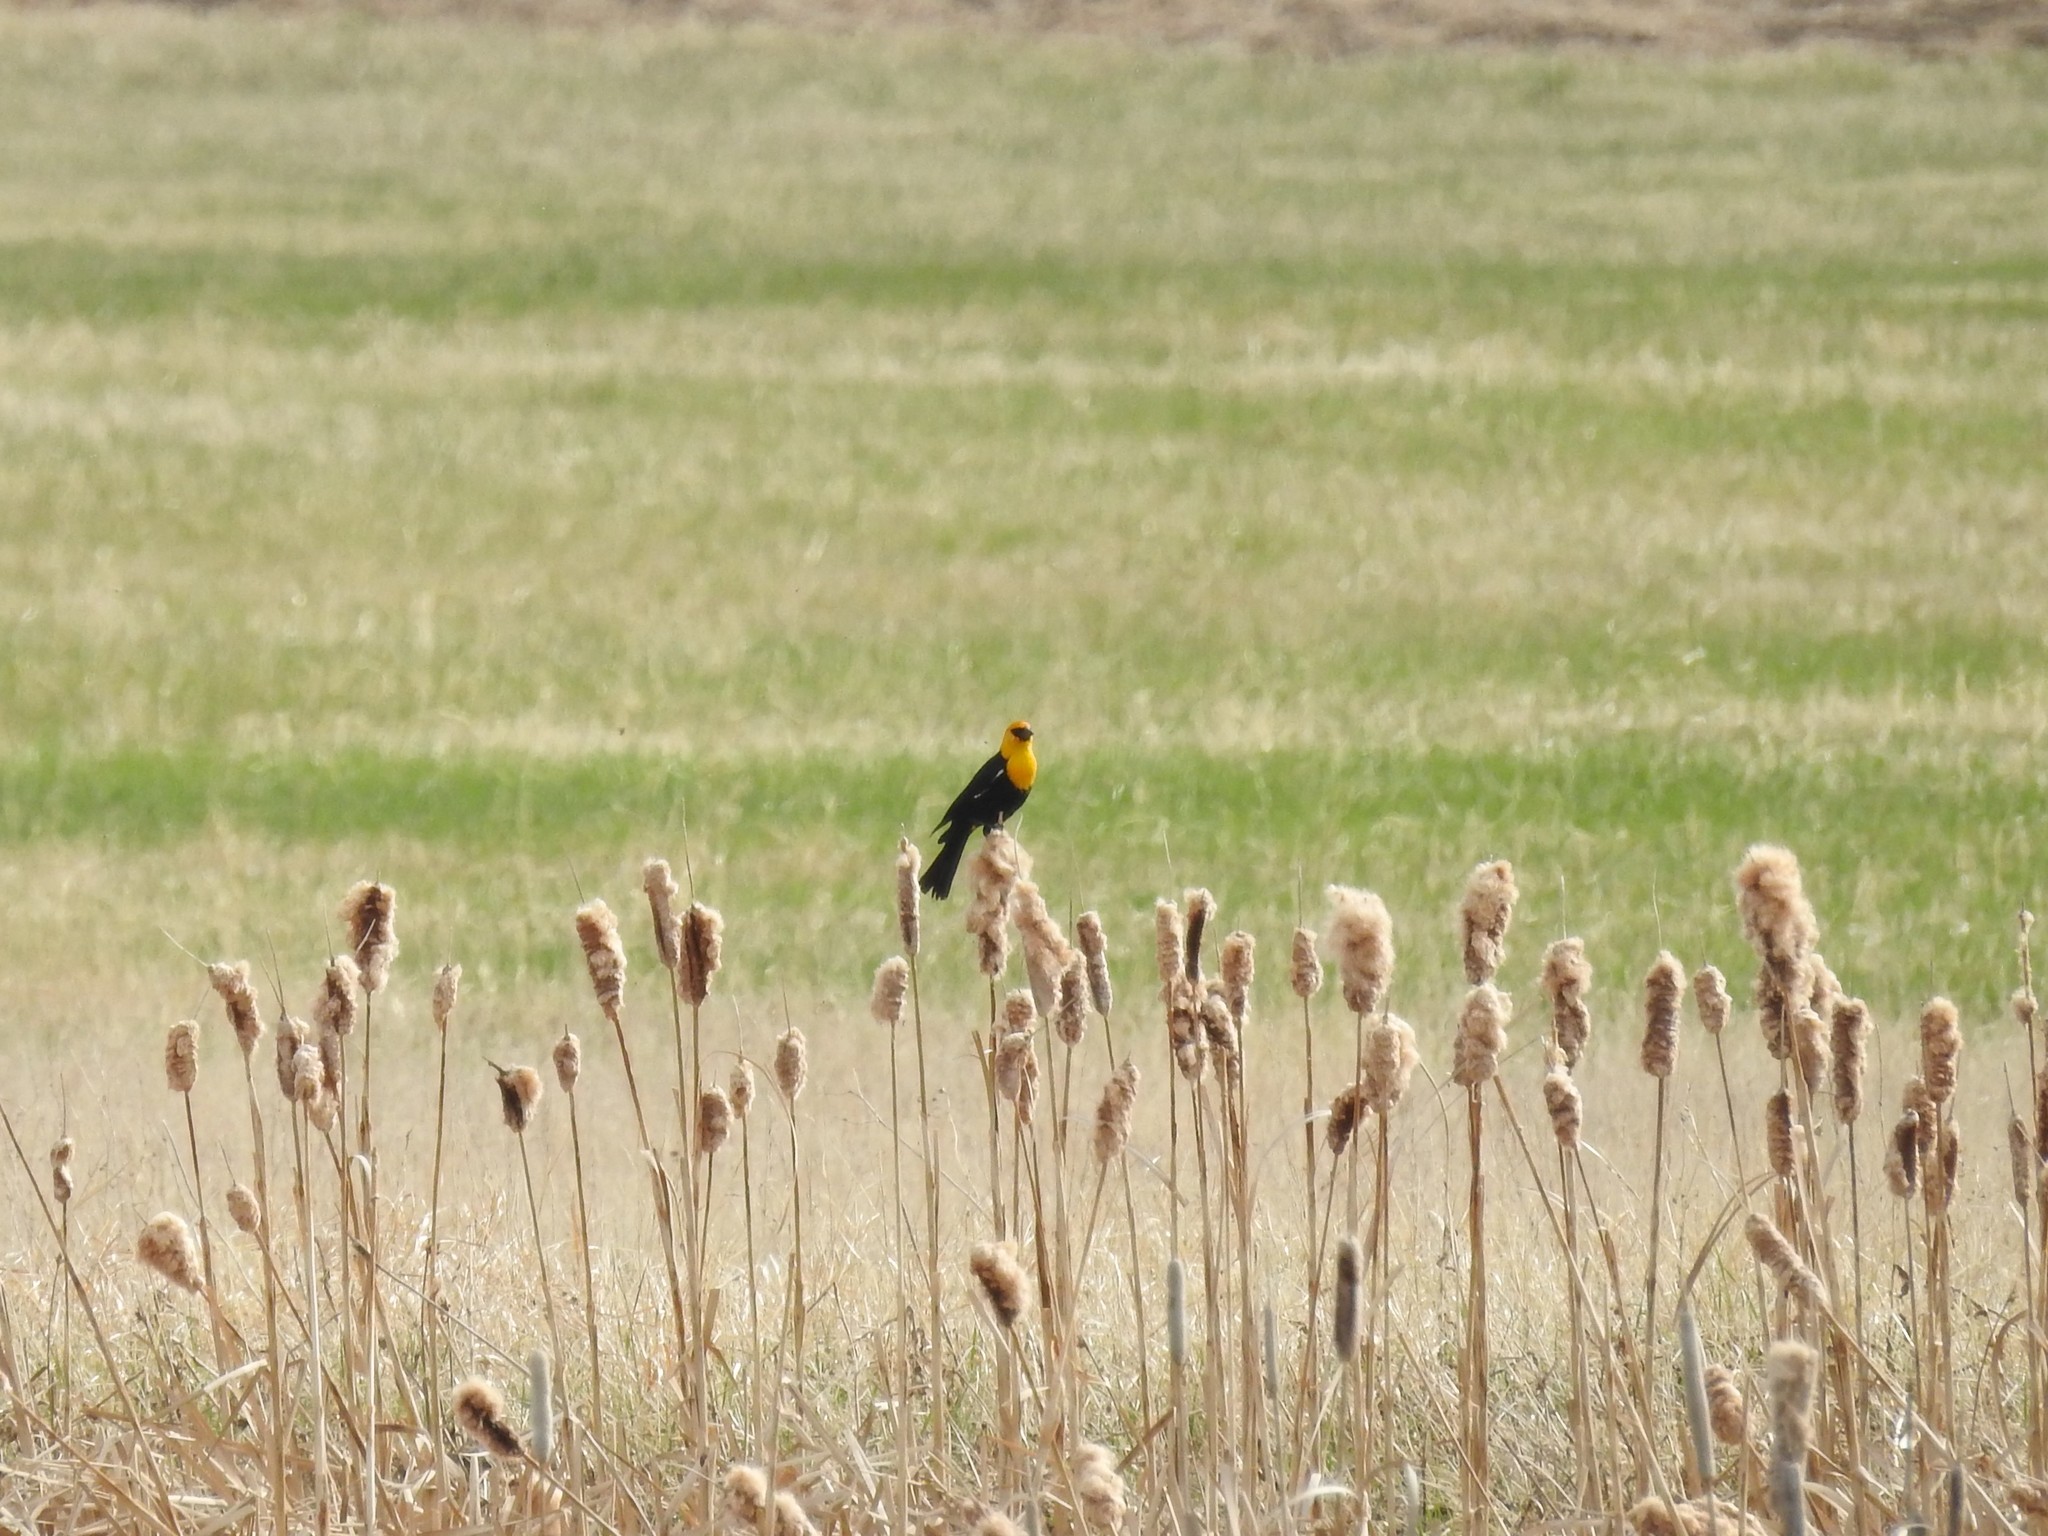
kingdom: Animalia
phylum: Chordata
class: Aves
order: Passeriformes
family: Icteridae
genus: Xanthocephalus
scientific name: Xanthocephalus xanthocephalus
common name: Yellow-headed blackbird
